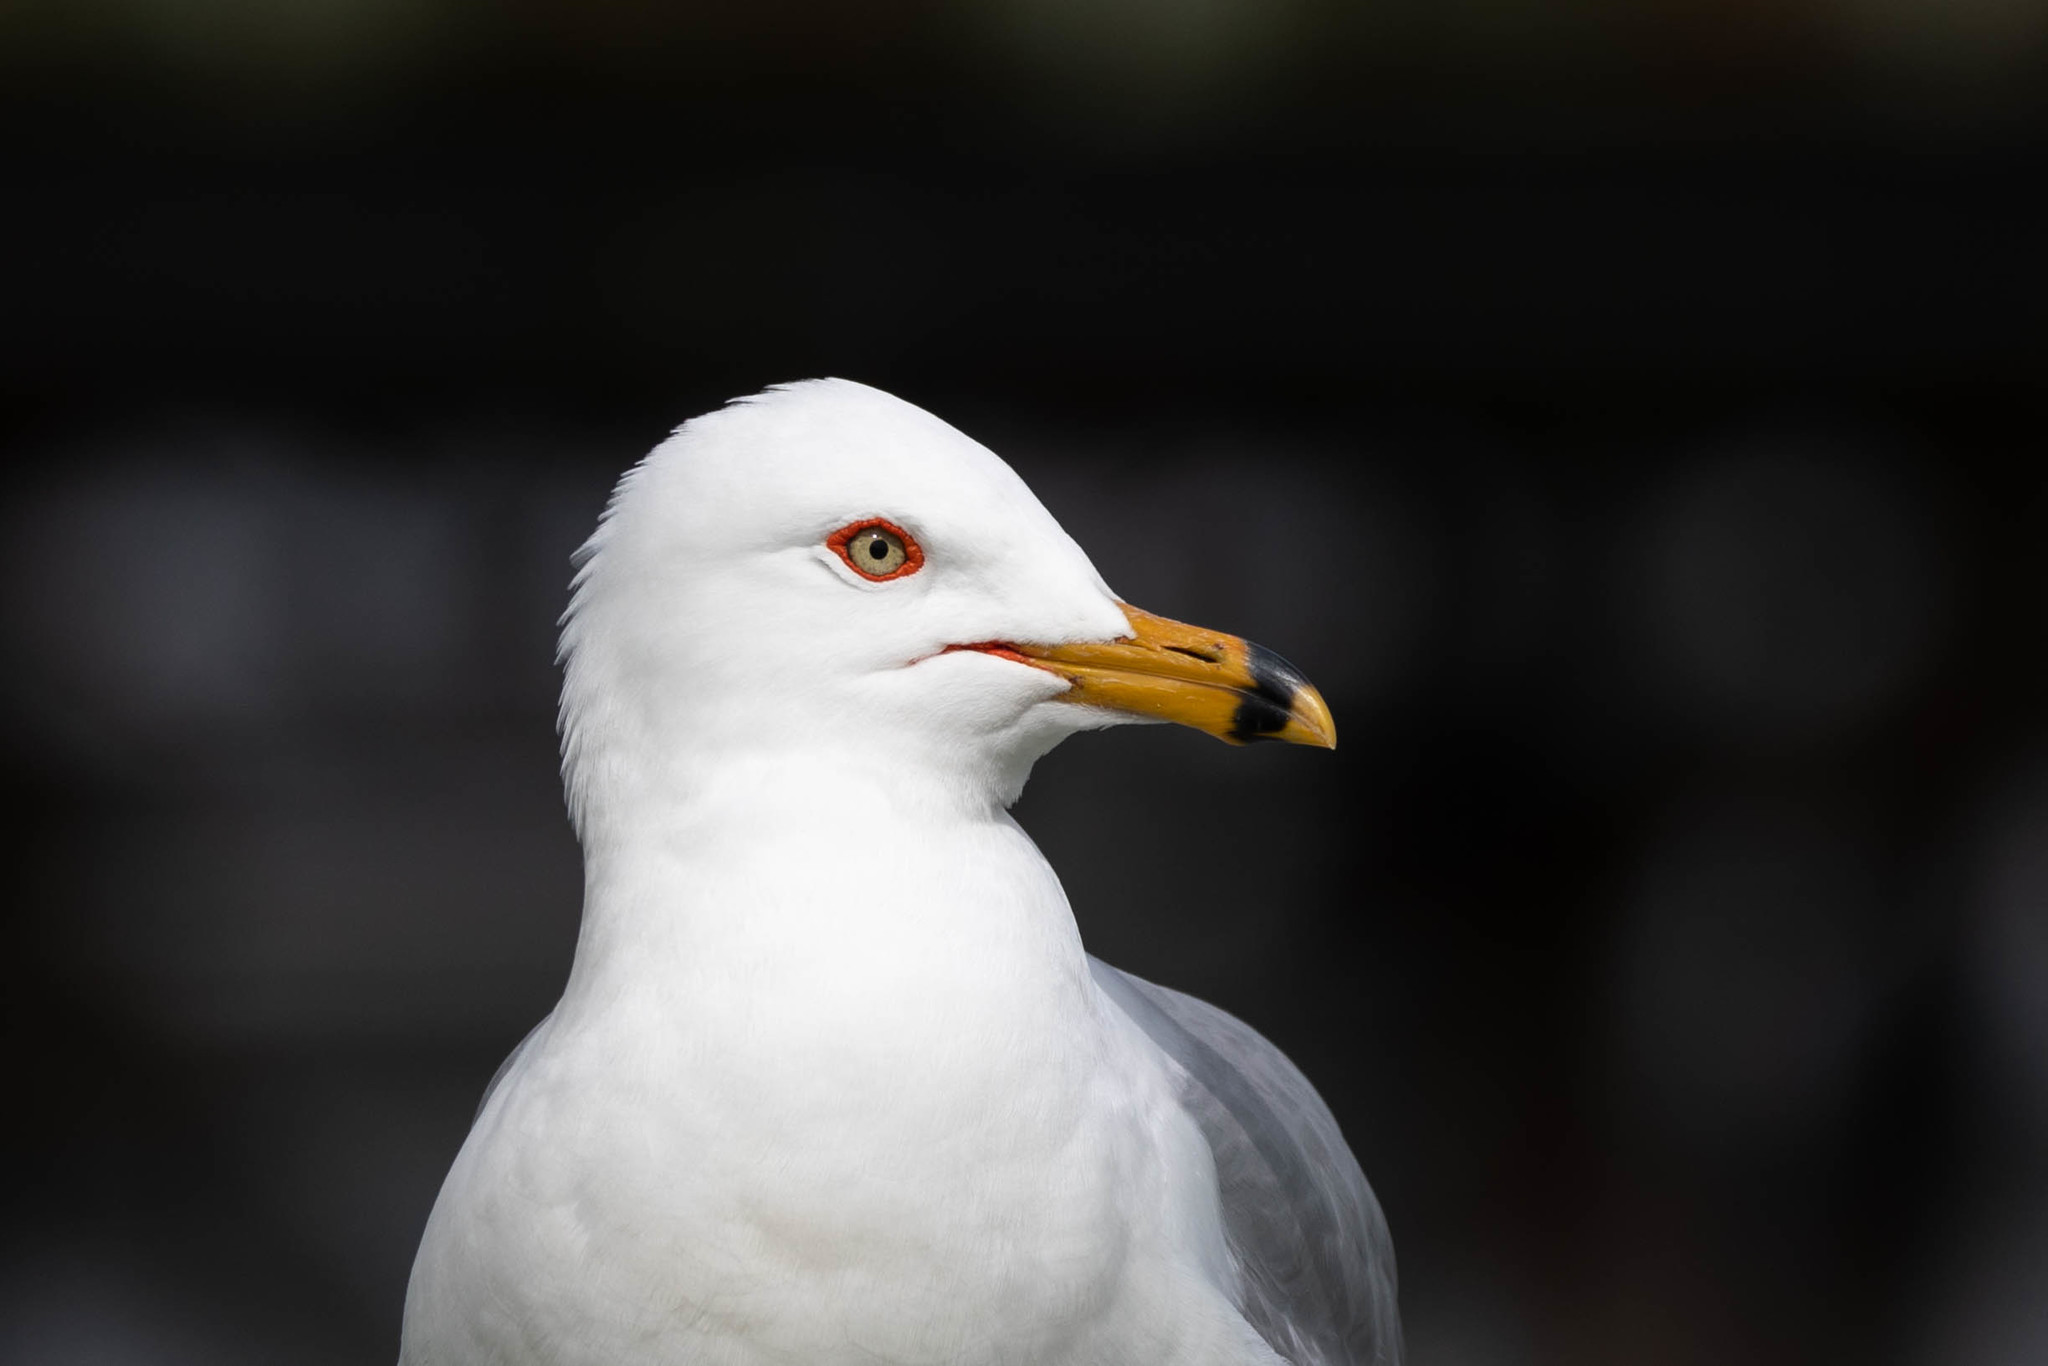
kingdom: Animalia
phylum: Chordata
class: Aves
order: Charadriiformes
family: Laridae
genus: Larus
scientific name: Larus delawarensis
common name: Ring-billed gull
